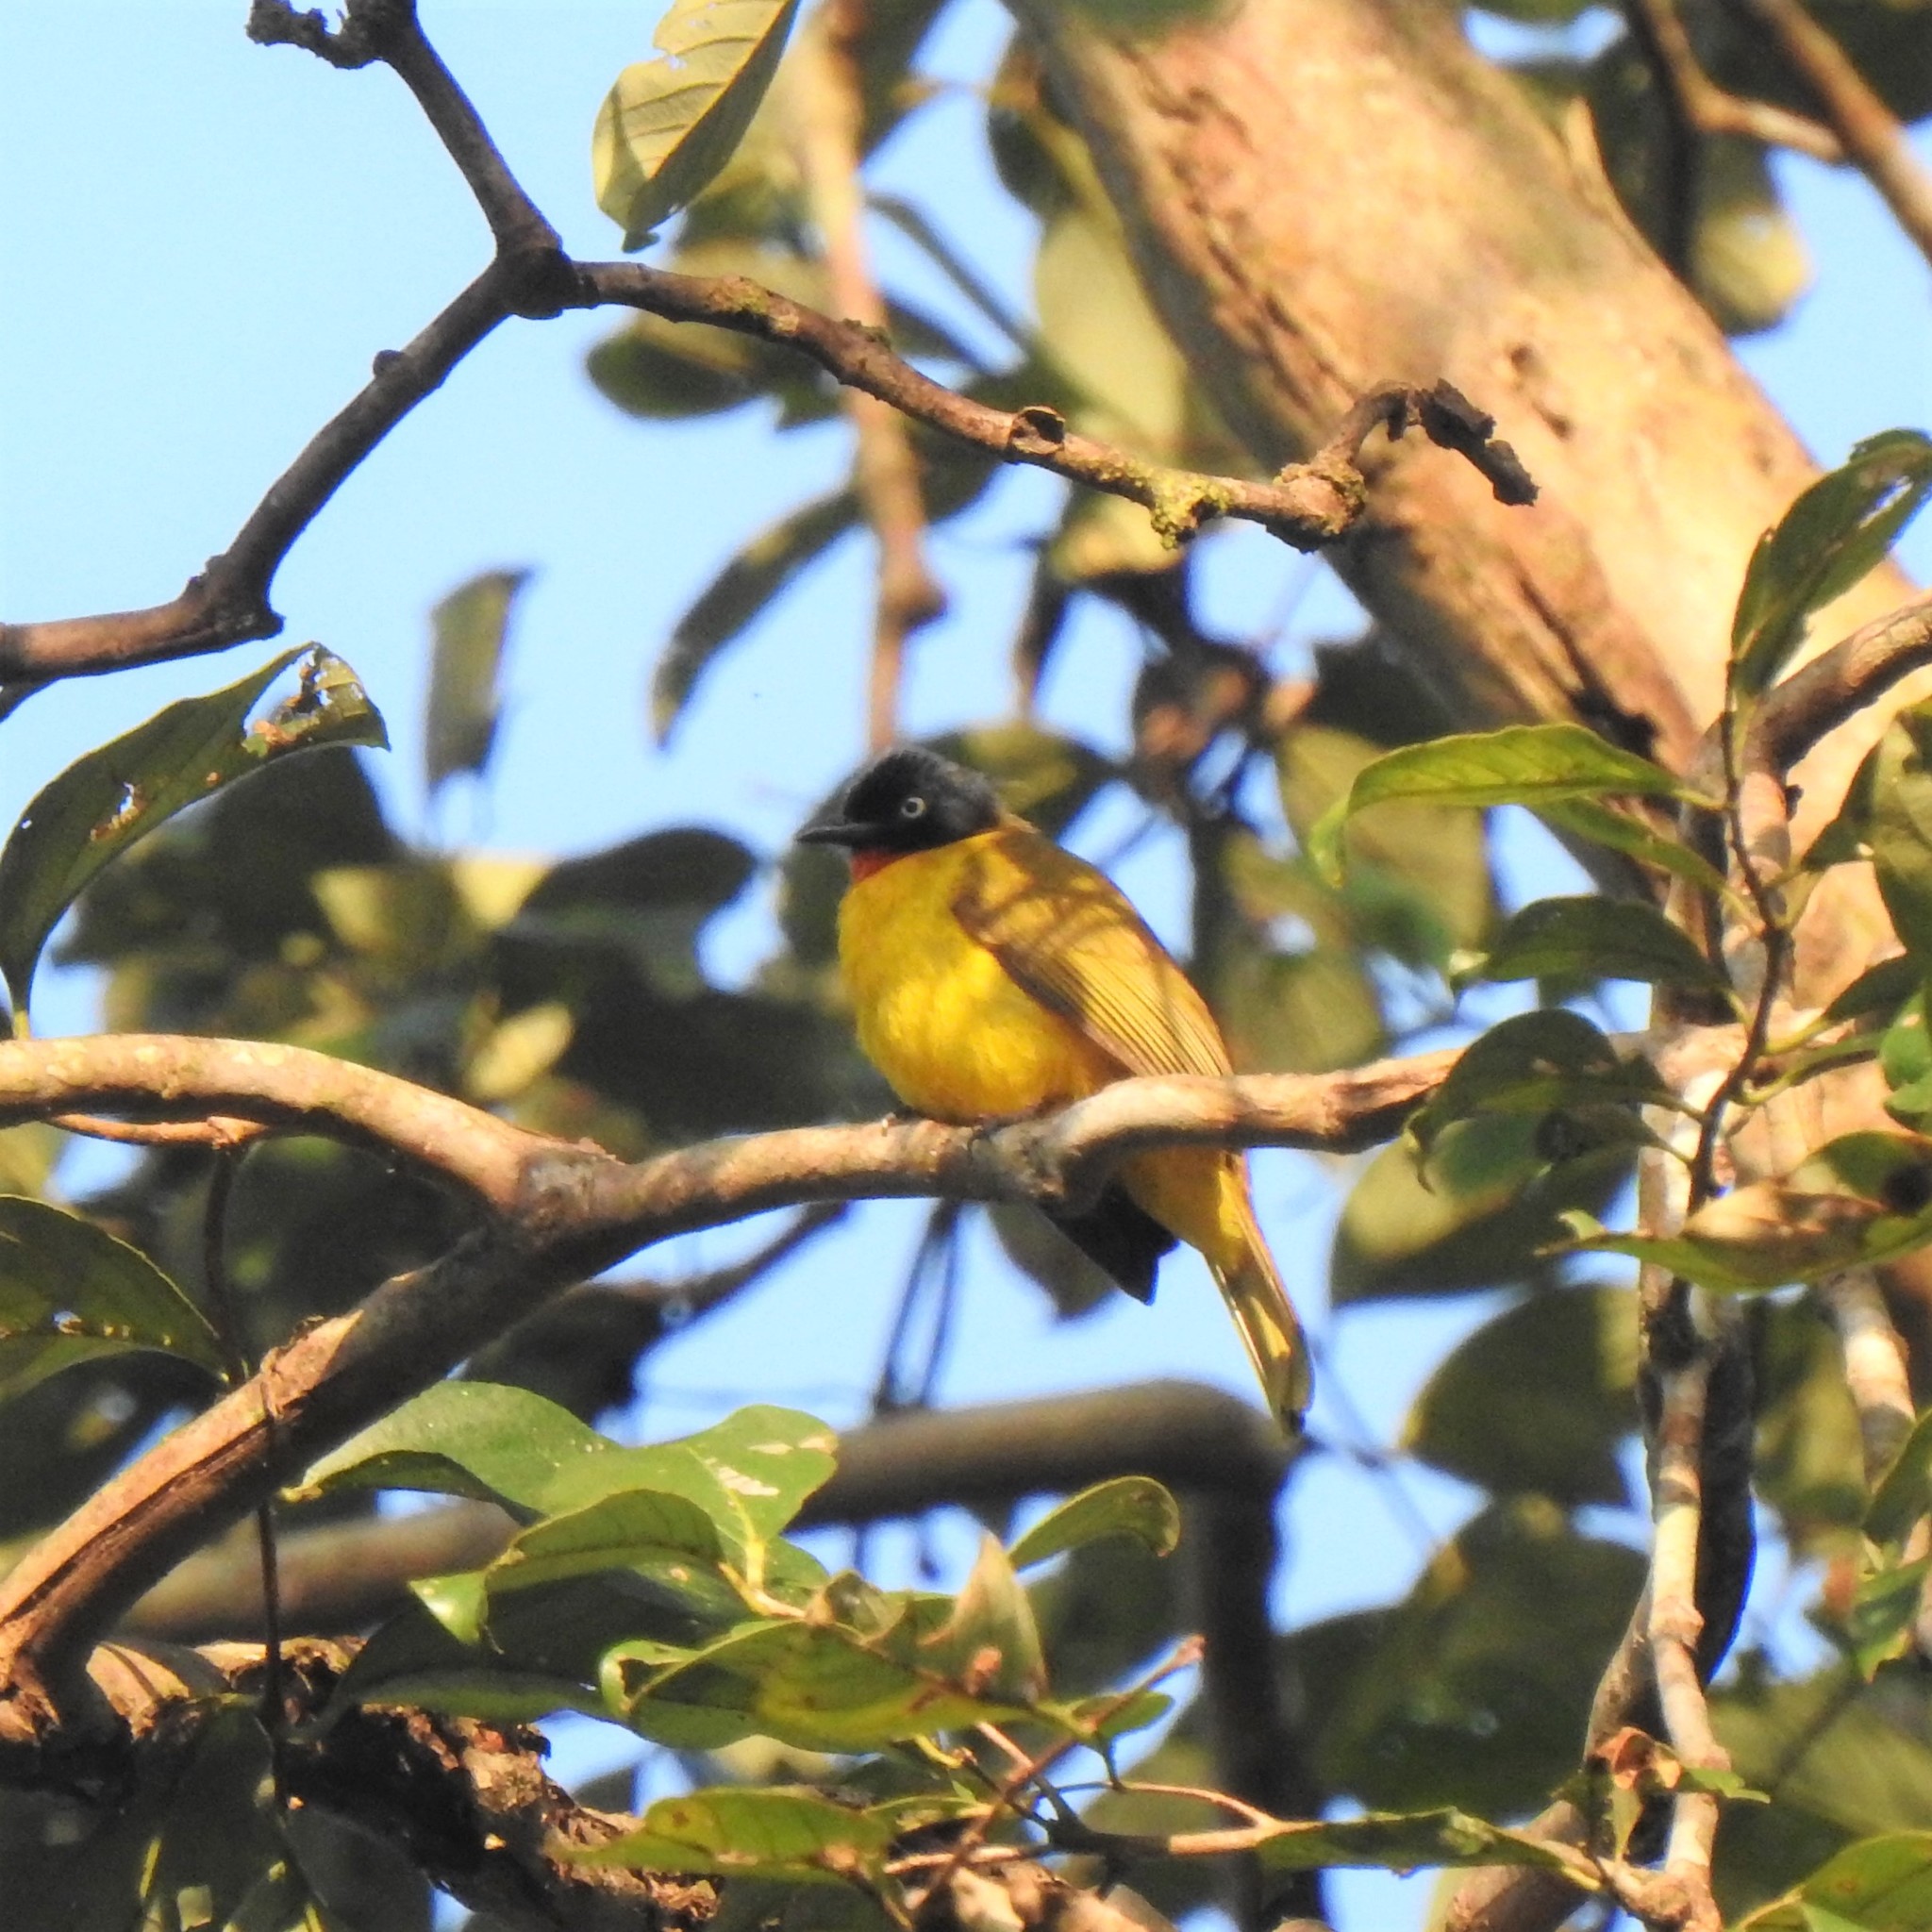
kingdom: Animalia
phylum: Chordata
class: Aves
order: Passeriformes
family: Pycnonotidae
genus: Pycnonotus
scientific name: Pycnonotus gularis
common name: Flame-throated bulbul
